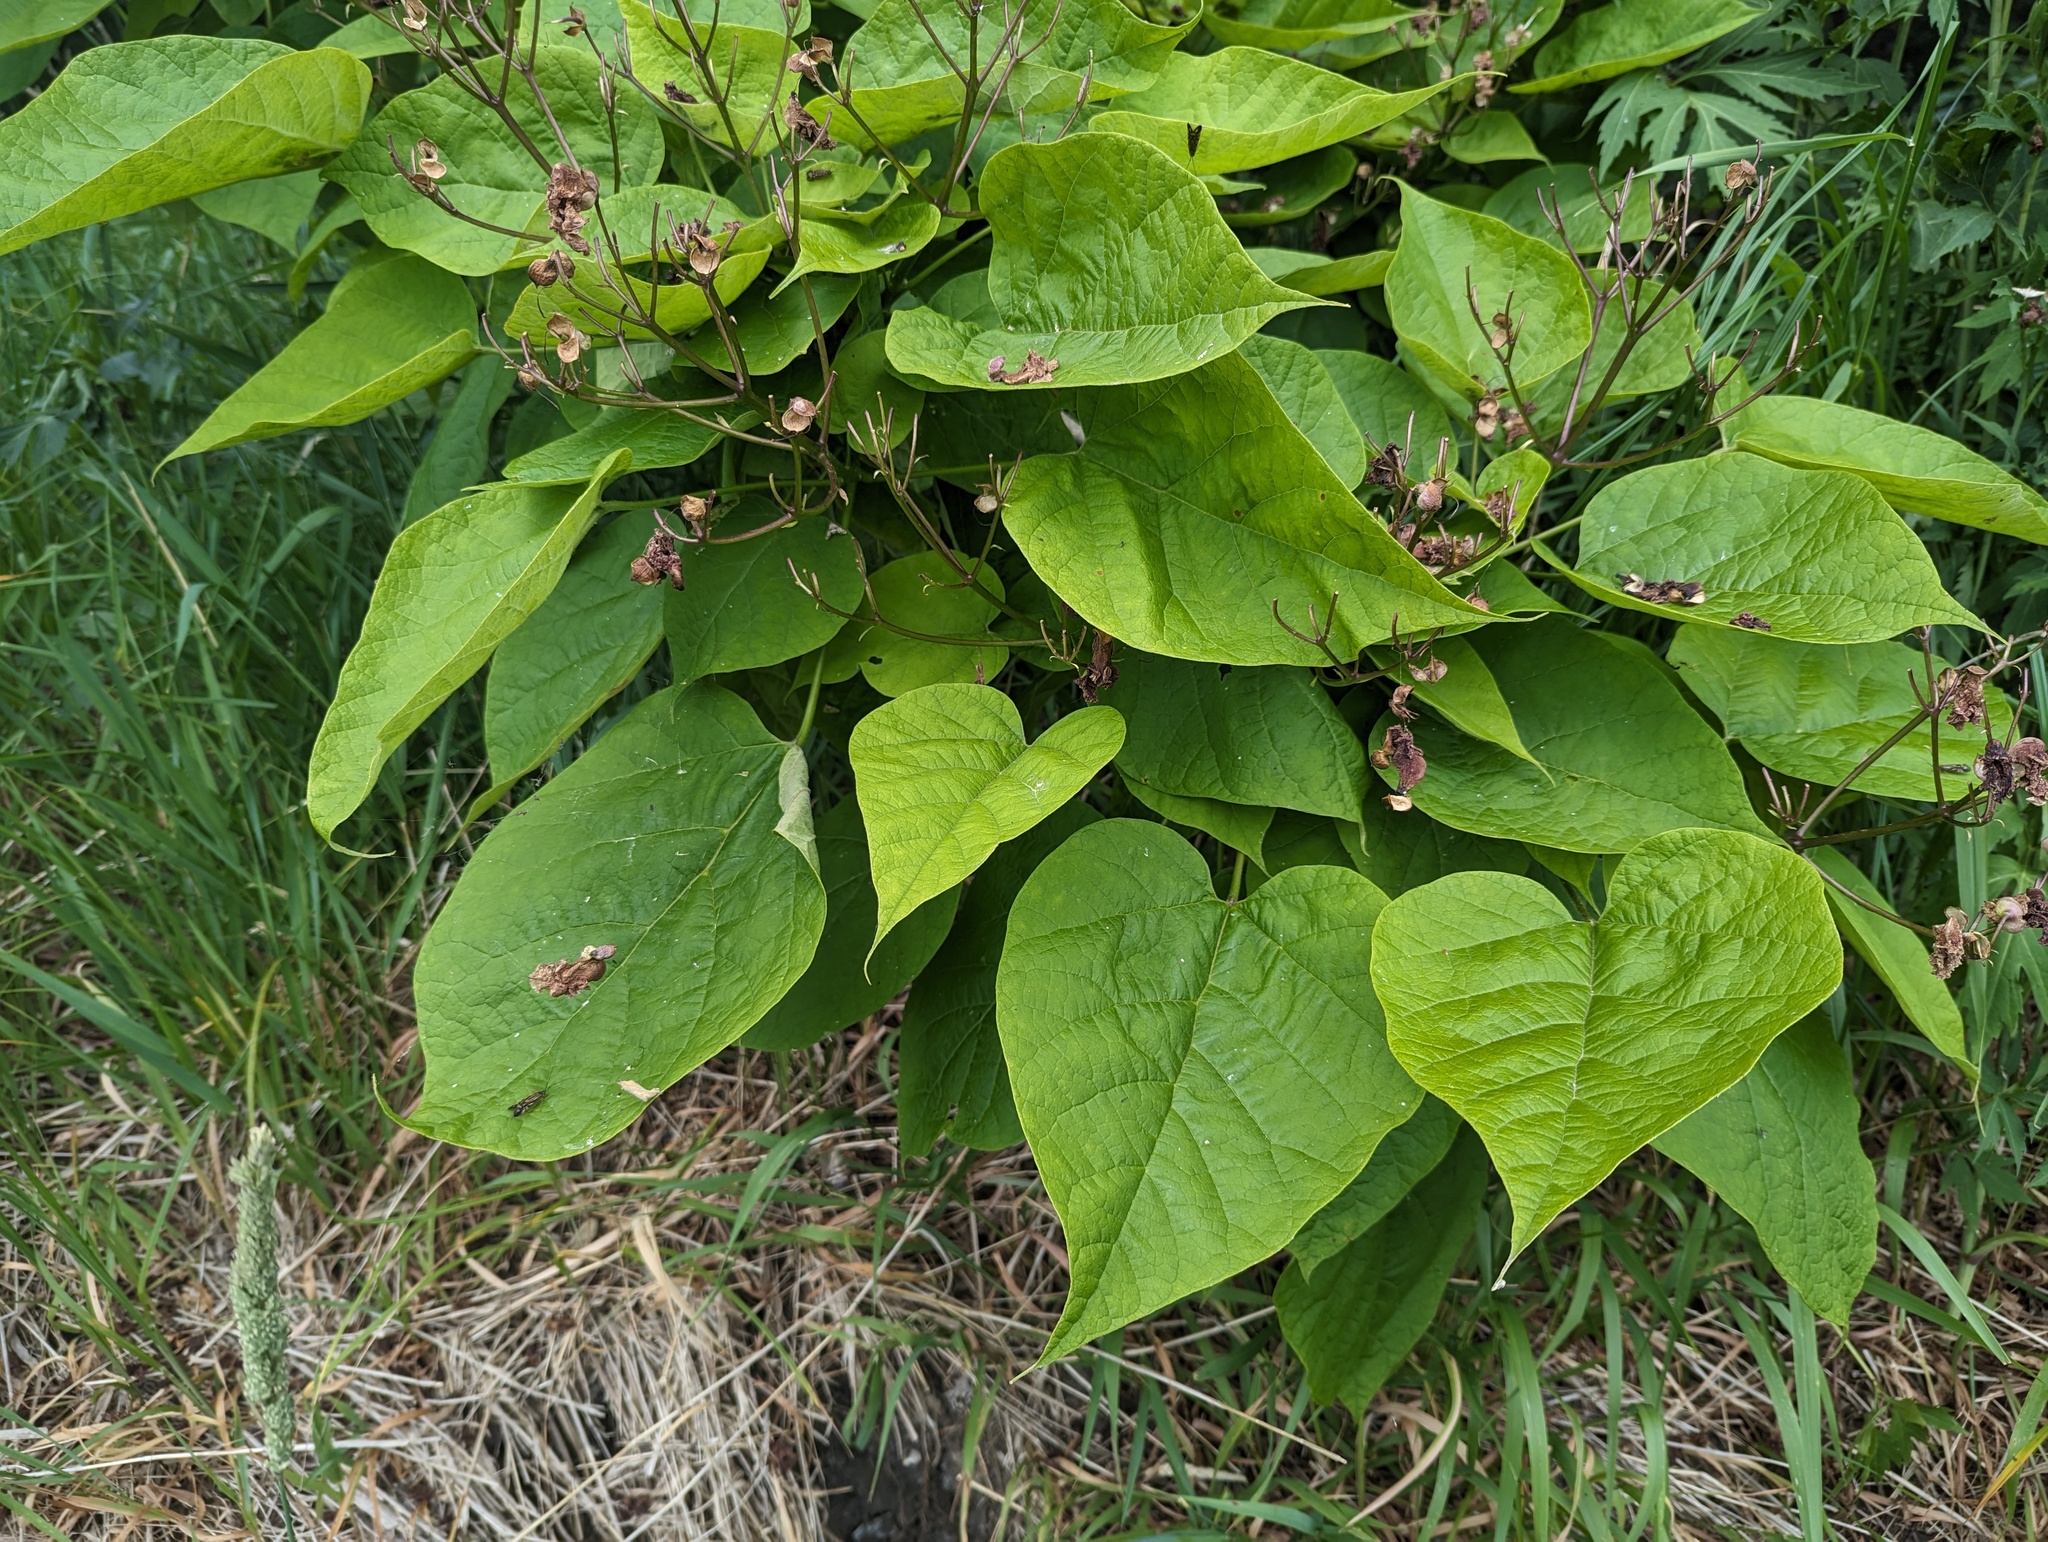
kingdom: Plantae
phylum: Tracheophyta
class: Magnoliopsida
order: Lamiales
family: Bignoniaceae
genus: Catalpa
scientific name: Catalpa speciosa
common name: Northern catalpa
